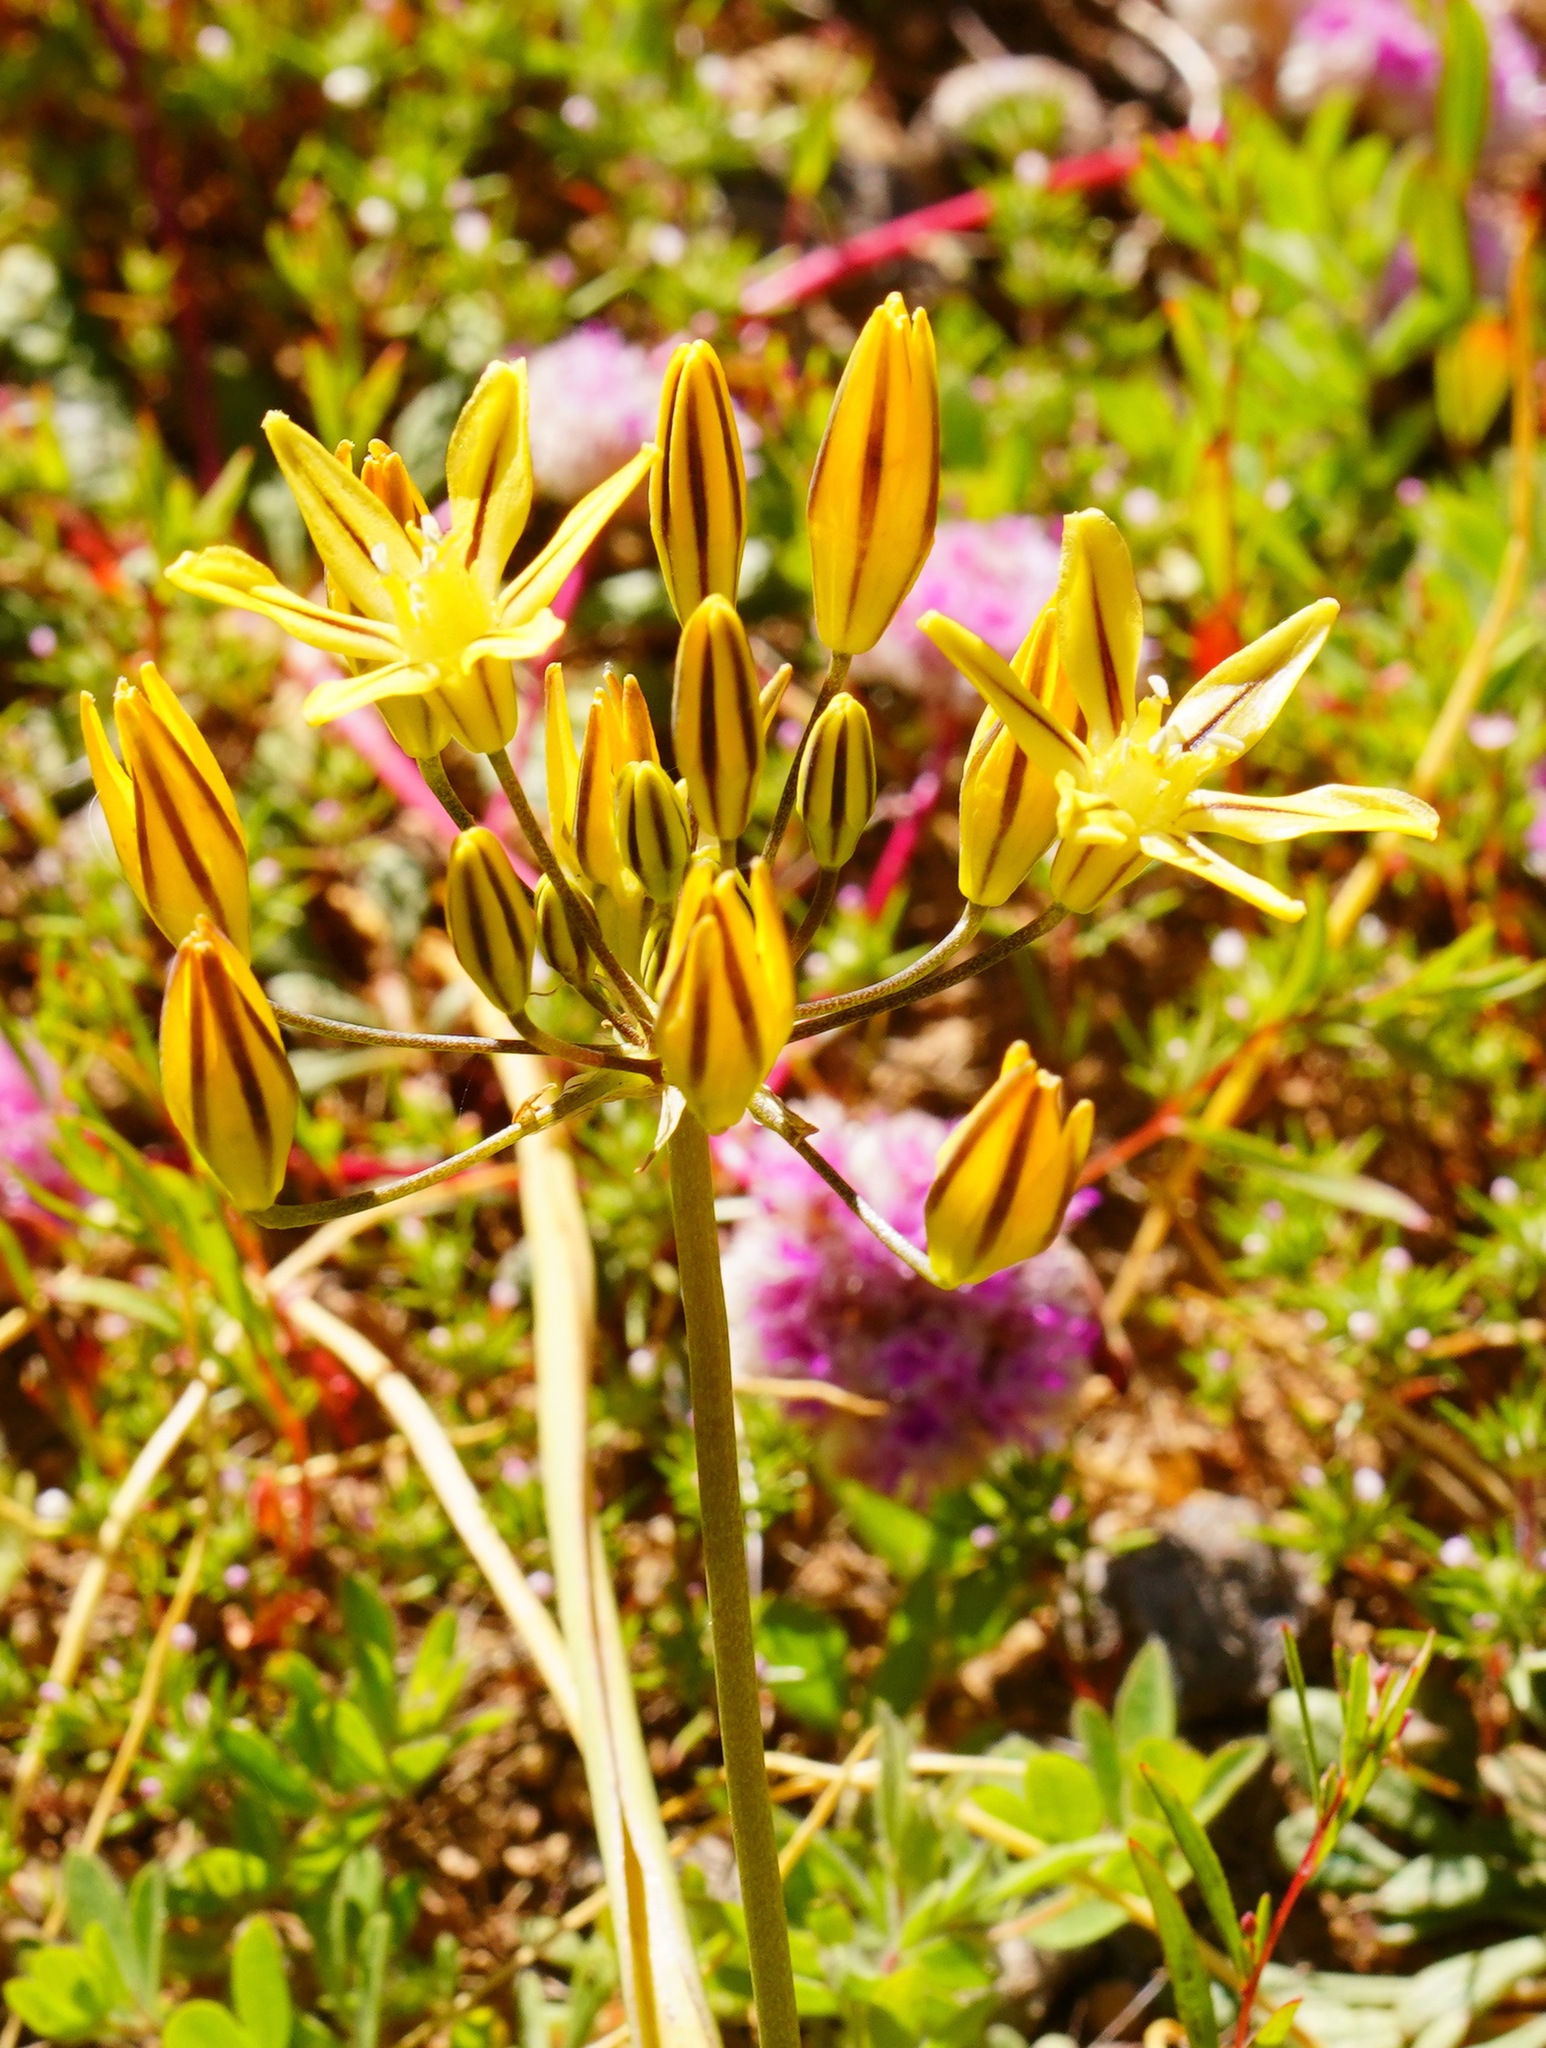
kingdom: Plantae
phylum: Tracheophyta
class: Liliopsida
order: Asparagales
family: Asparagaceae
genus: Triteleia
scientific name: Triteleia ixioides
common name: Yellow-brodiaea
